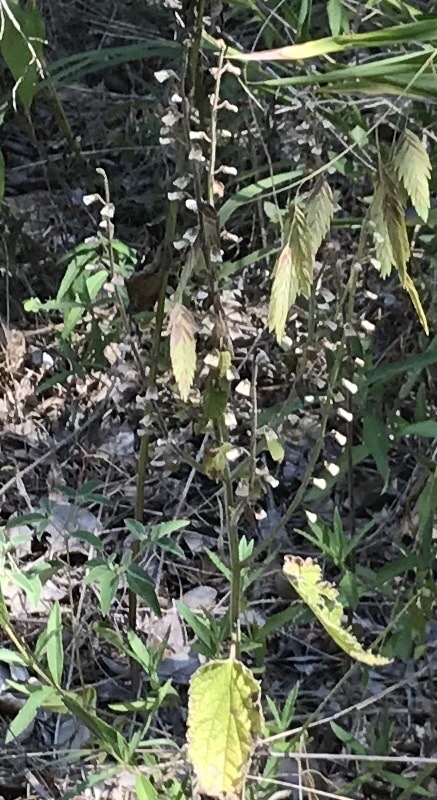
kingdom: Plantae
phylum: Tracheophyta
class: Magnoliopsida
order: Lamiales
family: Lamiaceae
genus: Scutellaria
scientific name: Scutellaria ovata
